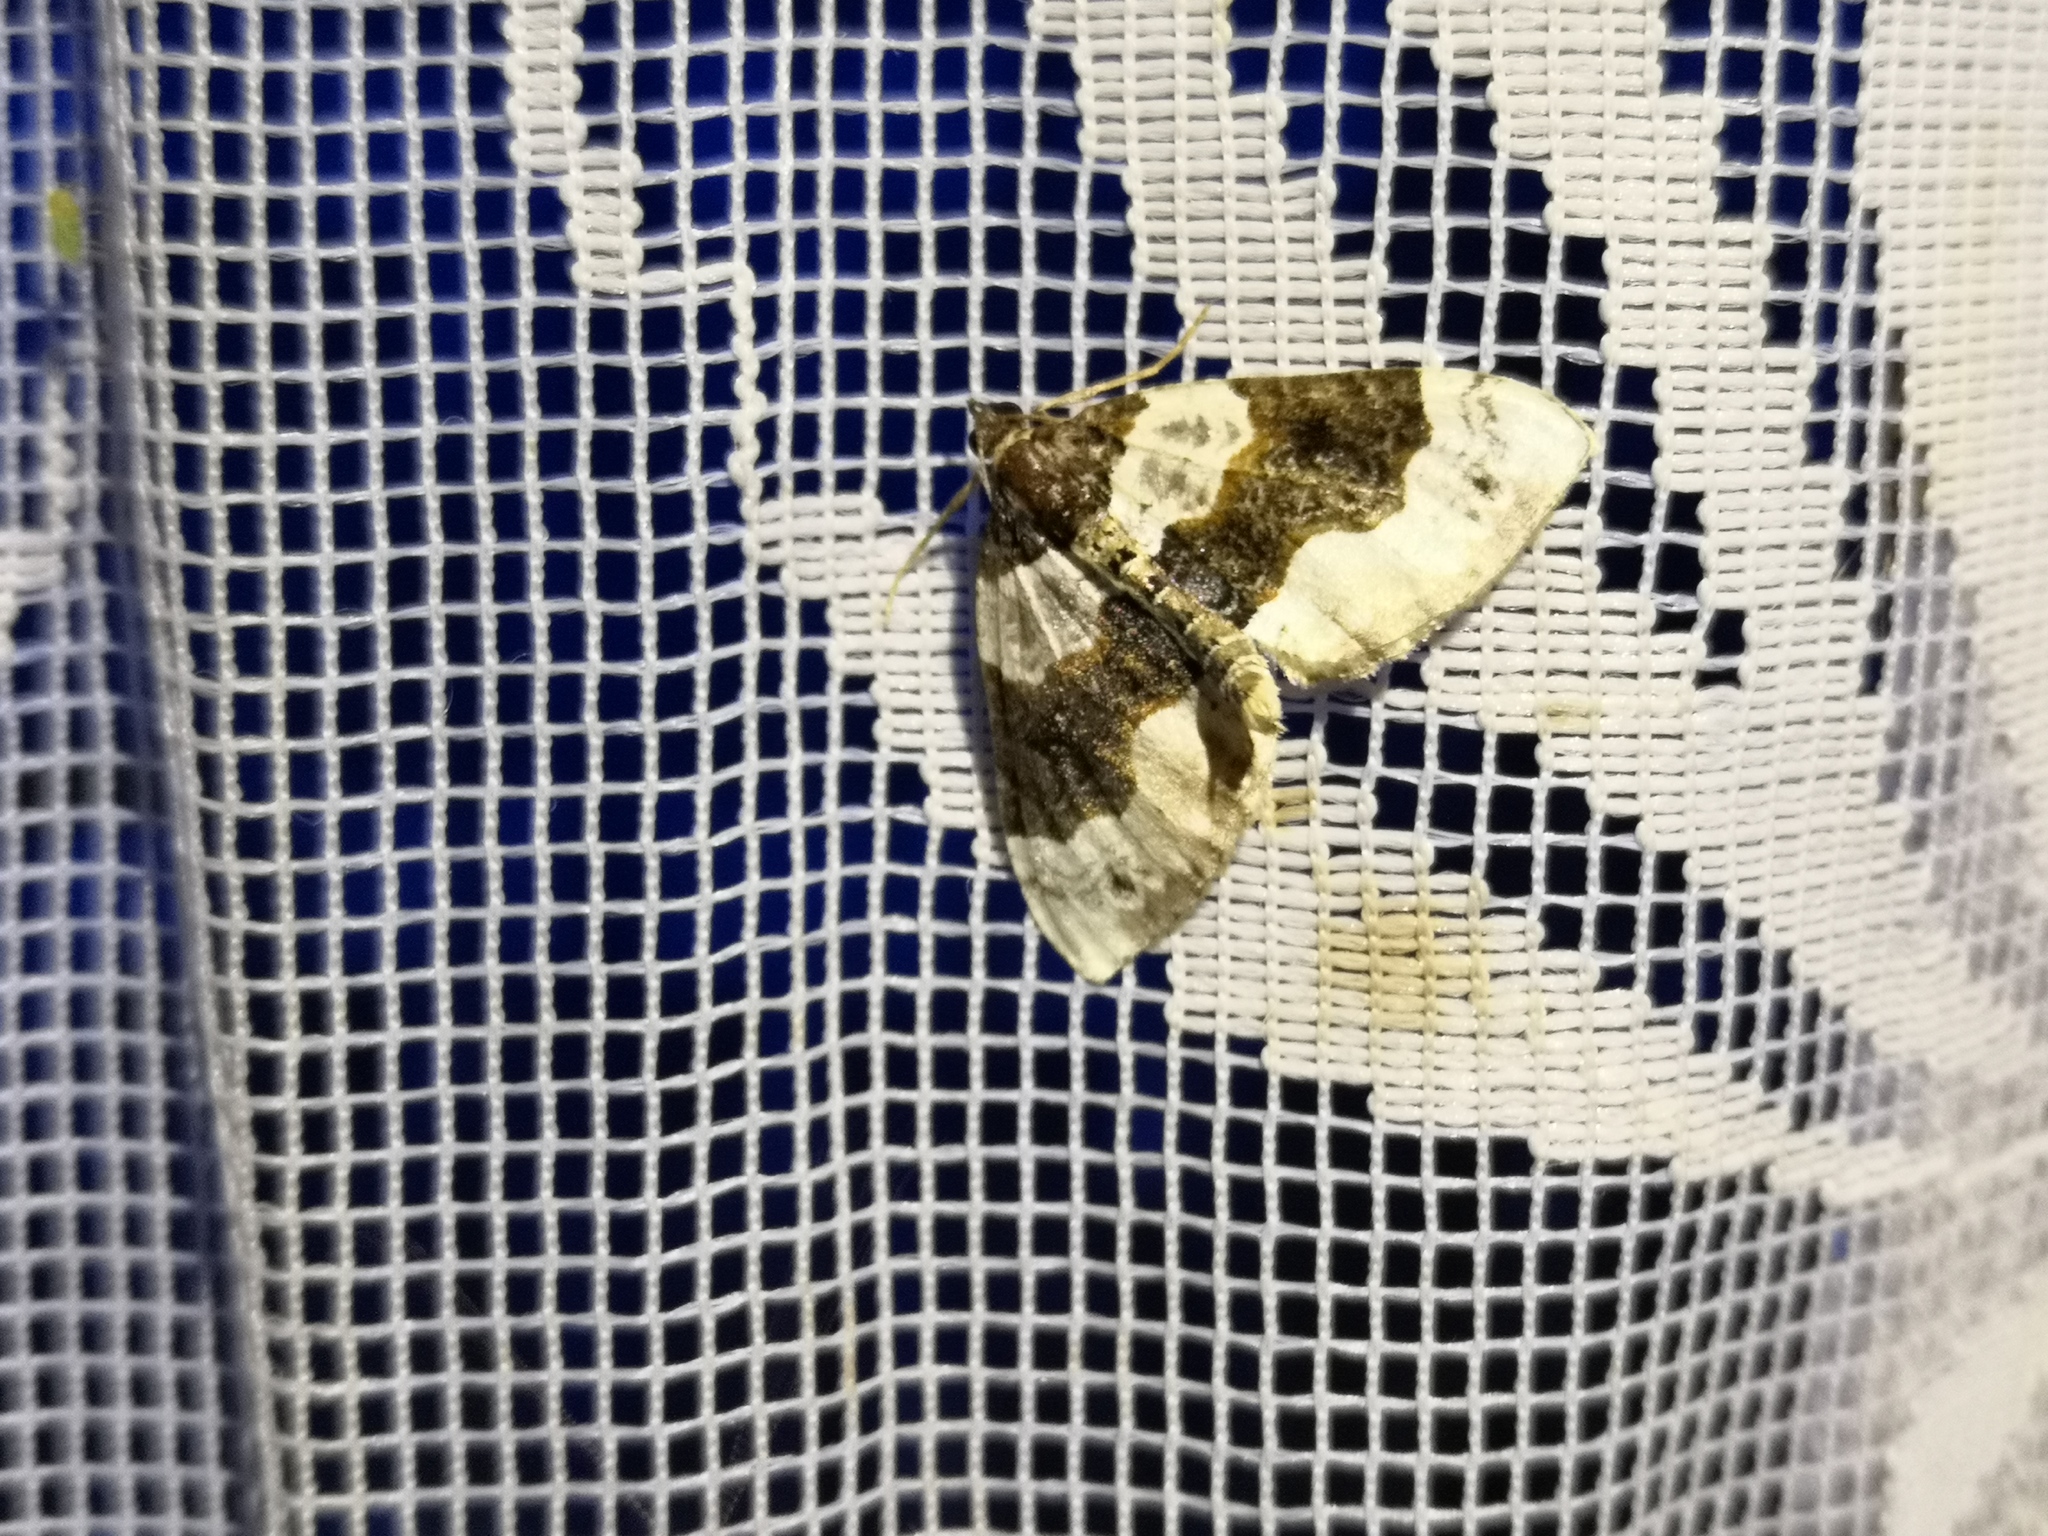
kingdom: Animalia
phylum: Arthropoda
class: Insecta
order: Lepidoptera
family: Geometridae
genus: Cosmorhoe
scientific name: Cosmorhoe ocellata
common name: Purple bar
